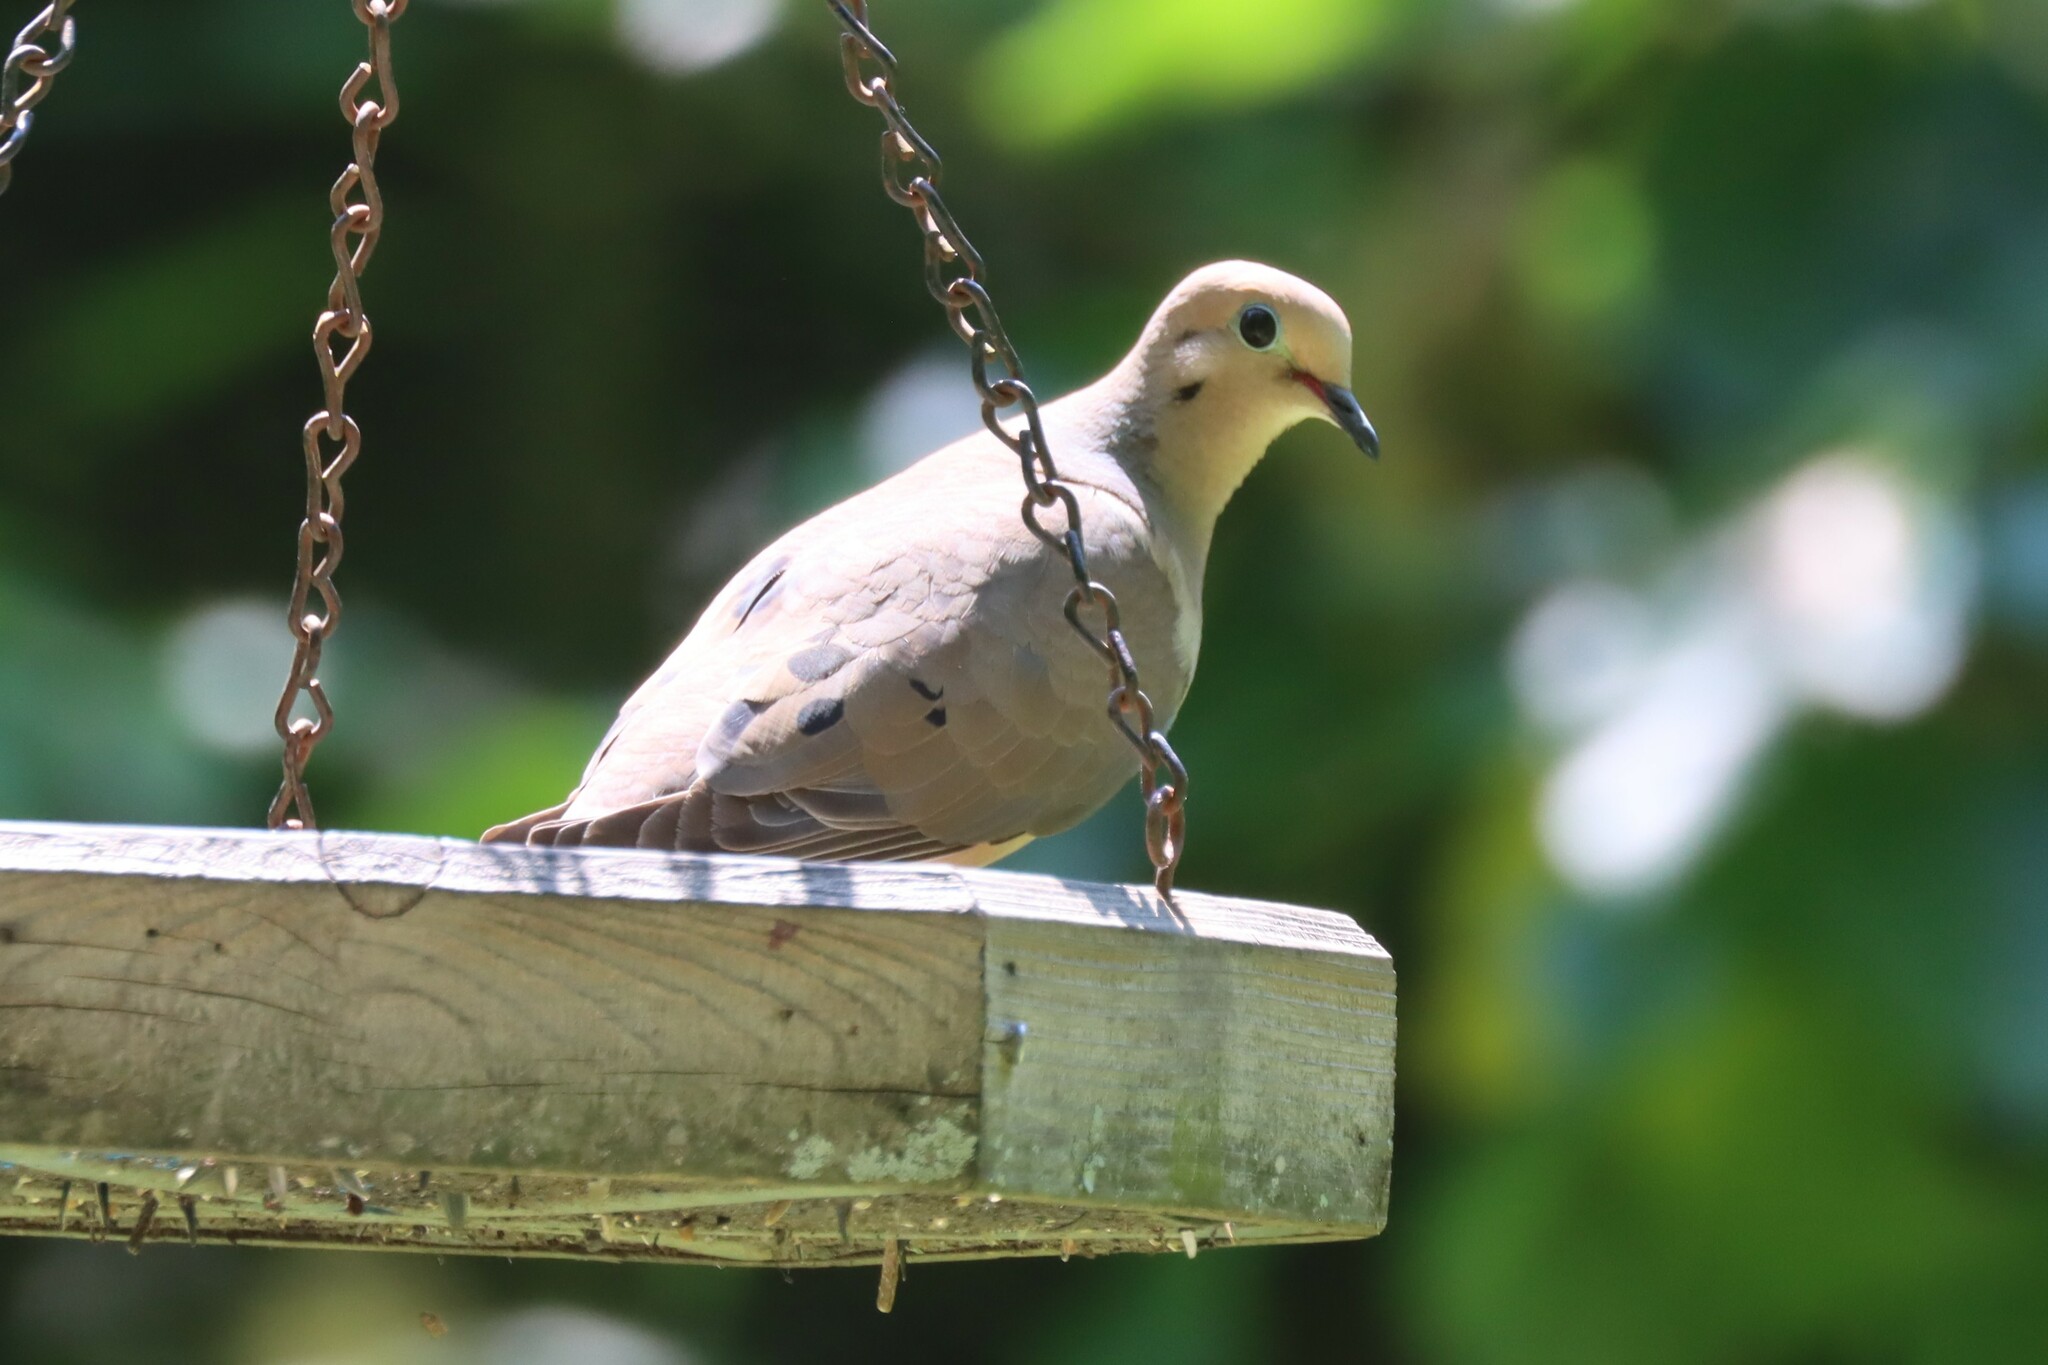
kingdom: Animalia
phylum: Chordata
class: Aves
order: Columbiformes
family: Columbidae
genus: Zenaida
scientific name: Zenaida macroura
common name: Mourning dove
